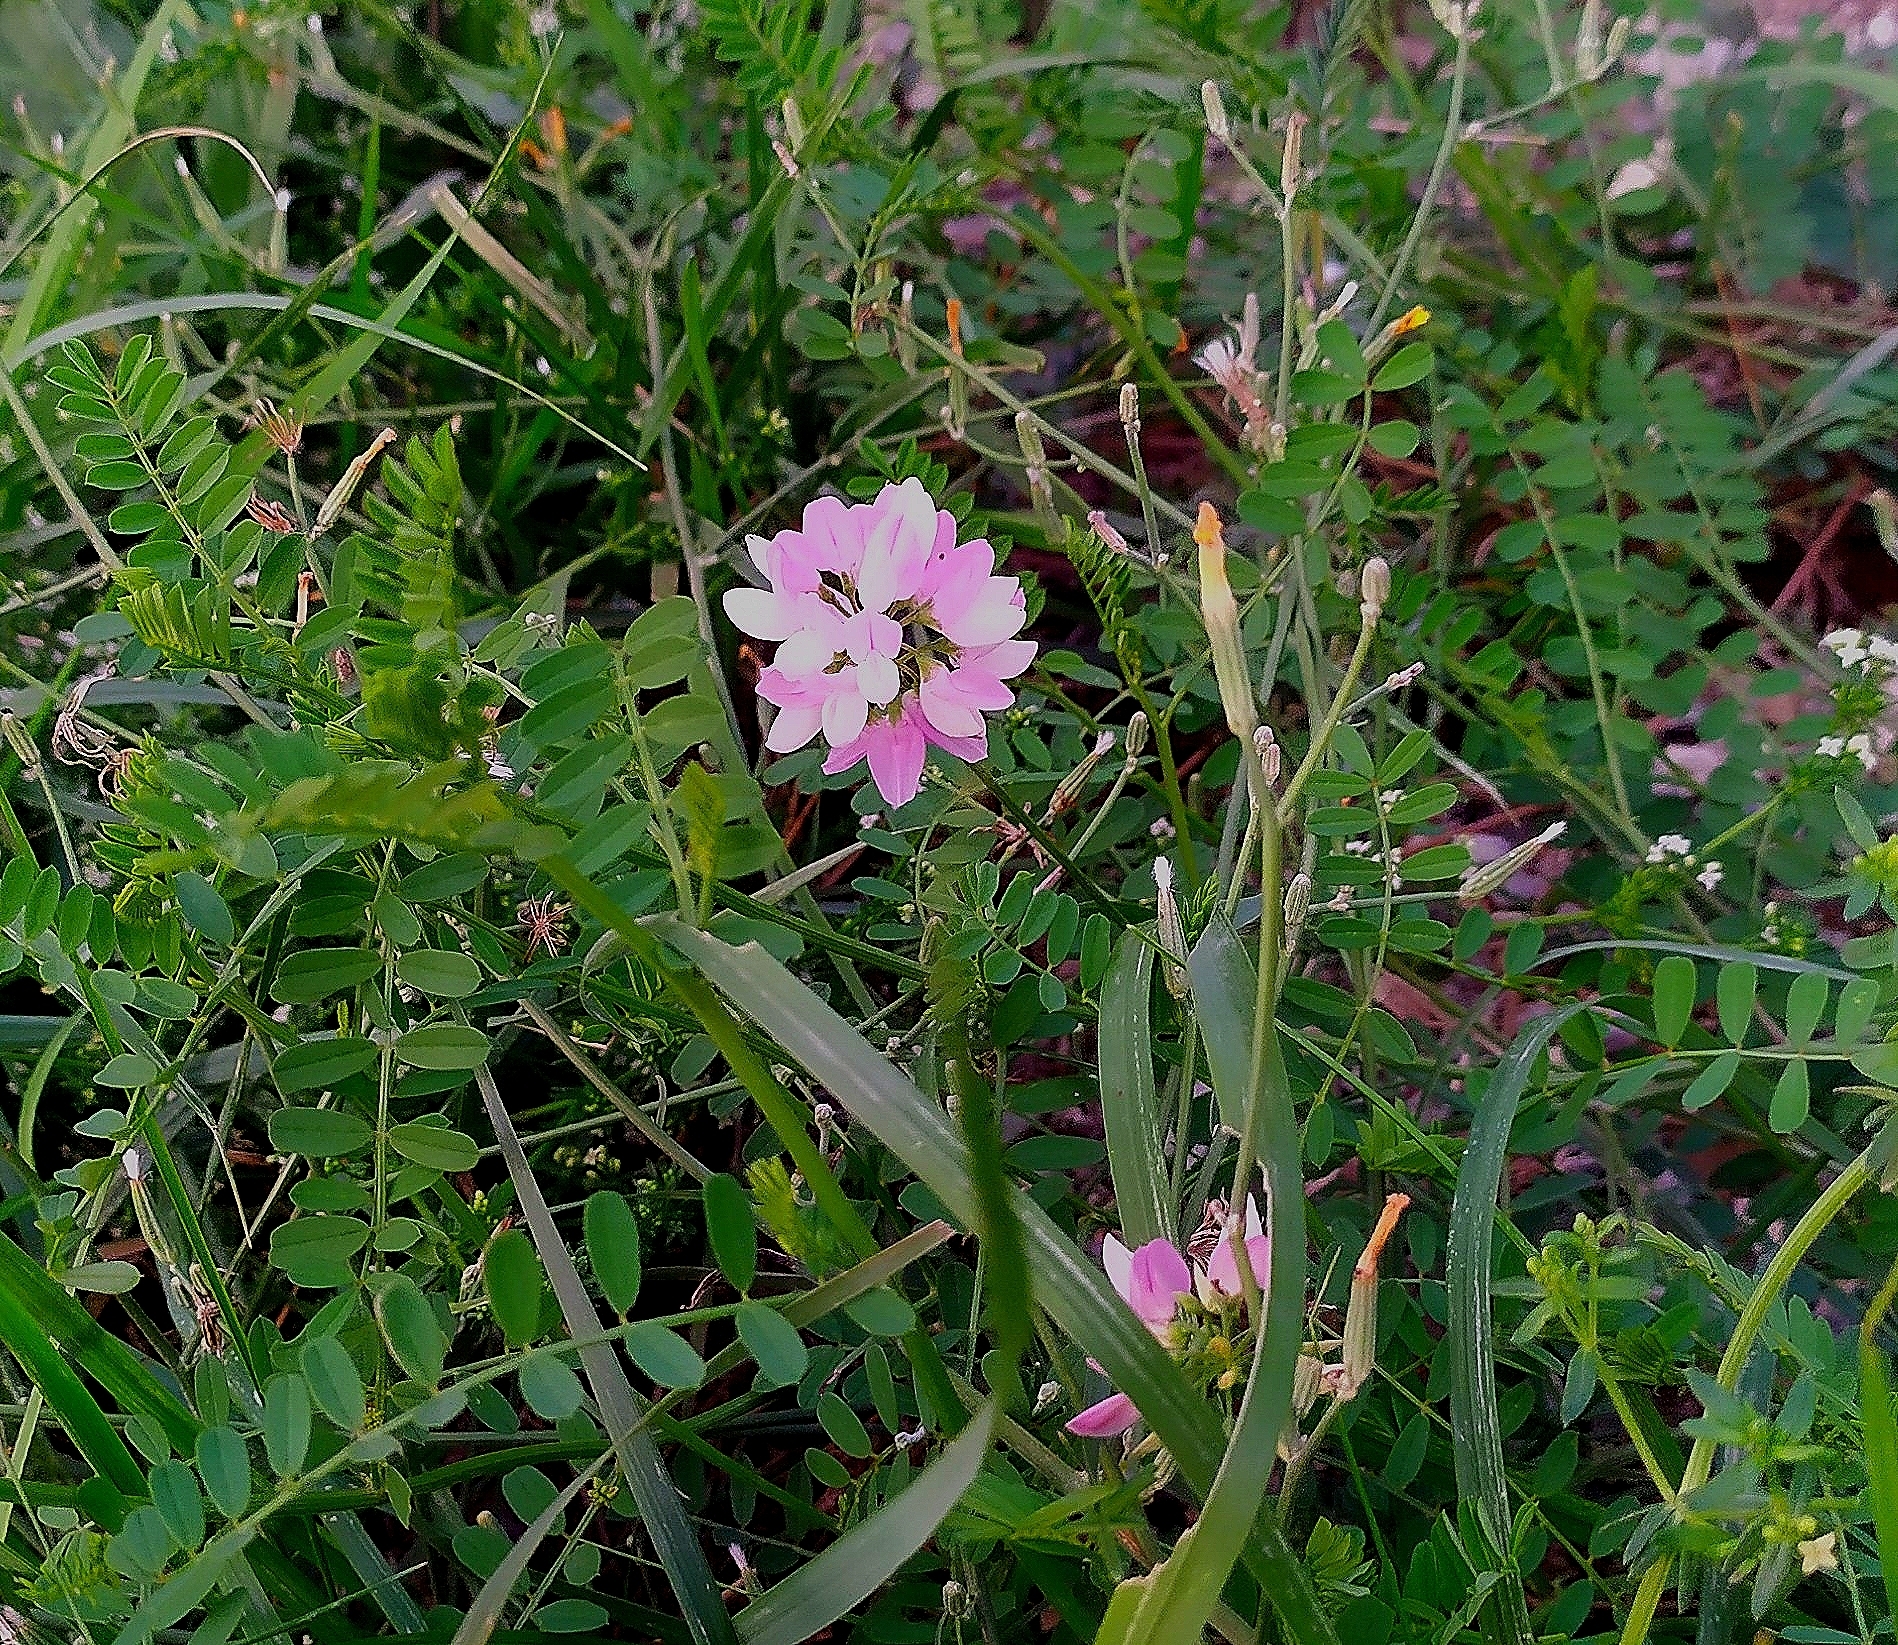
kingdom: Plantae
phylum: Tracheophyta
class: Magnoliopsida
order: Fabales
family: Fabaceae
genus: Coronilla
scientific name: Coronilla varia
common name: Crownvetch
